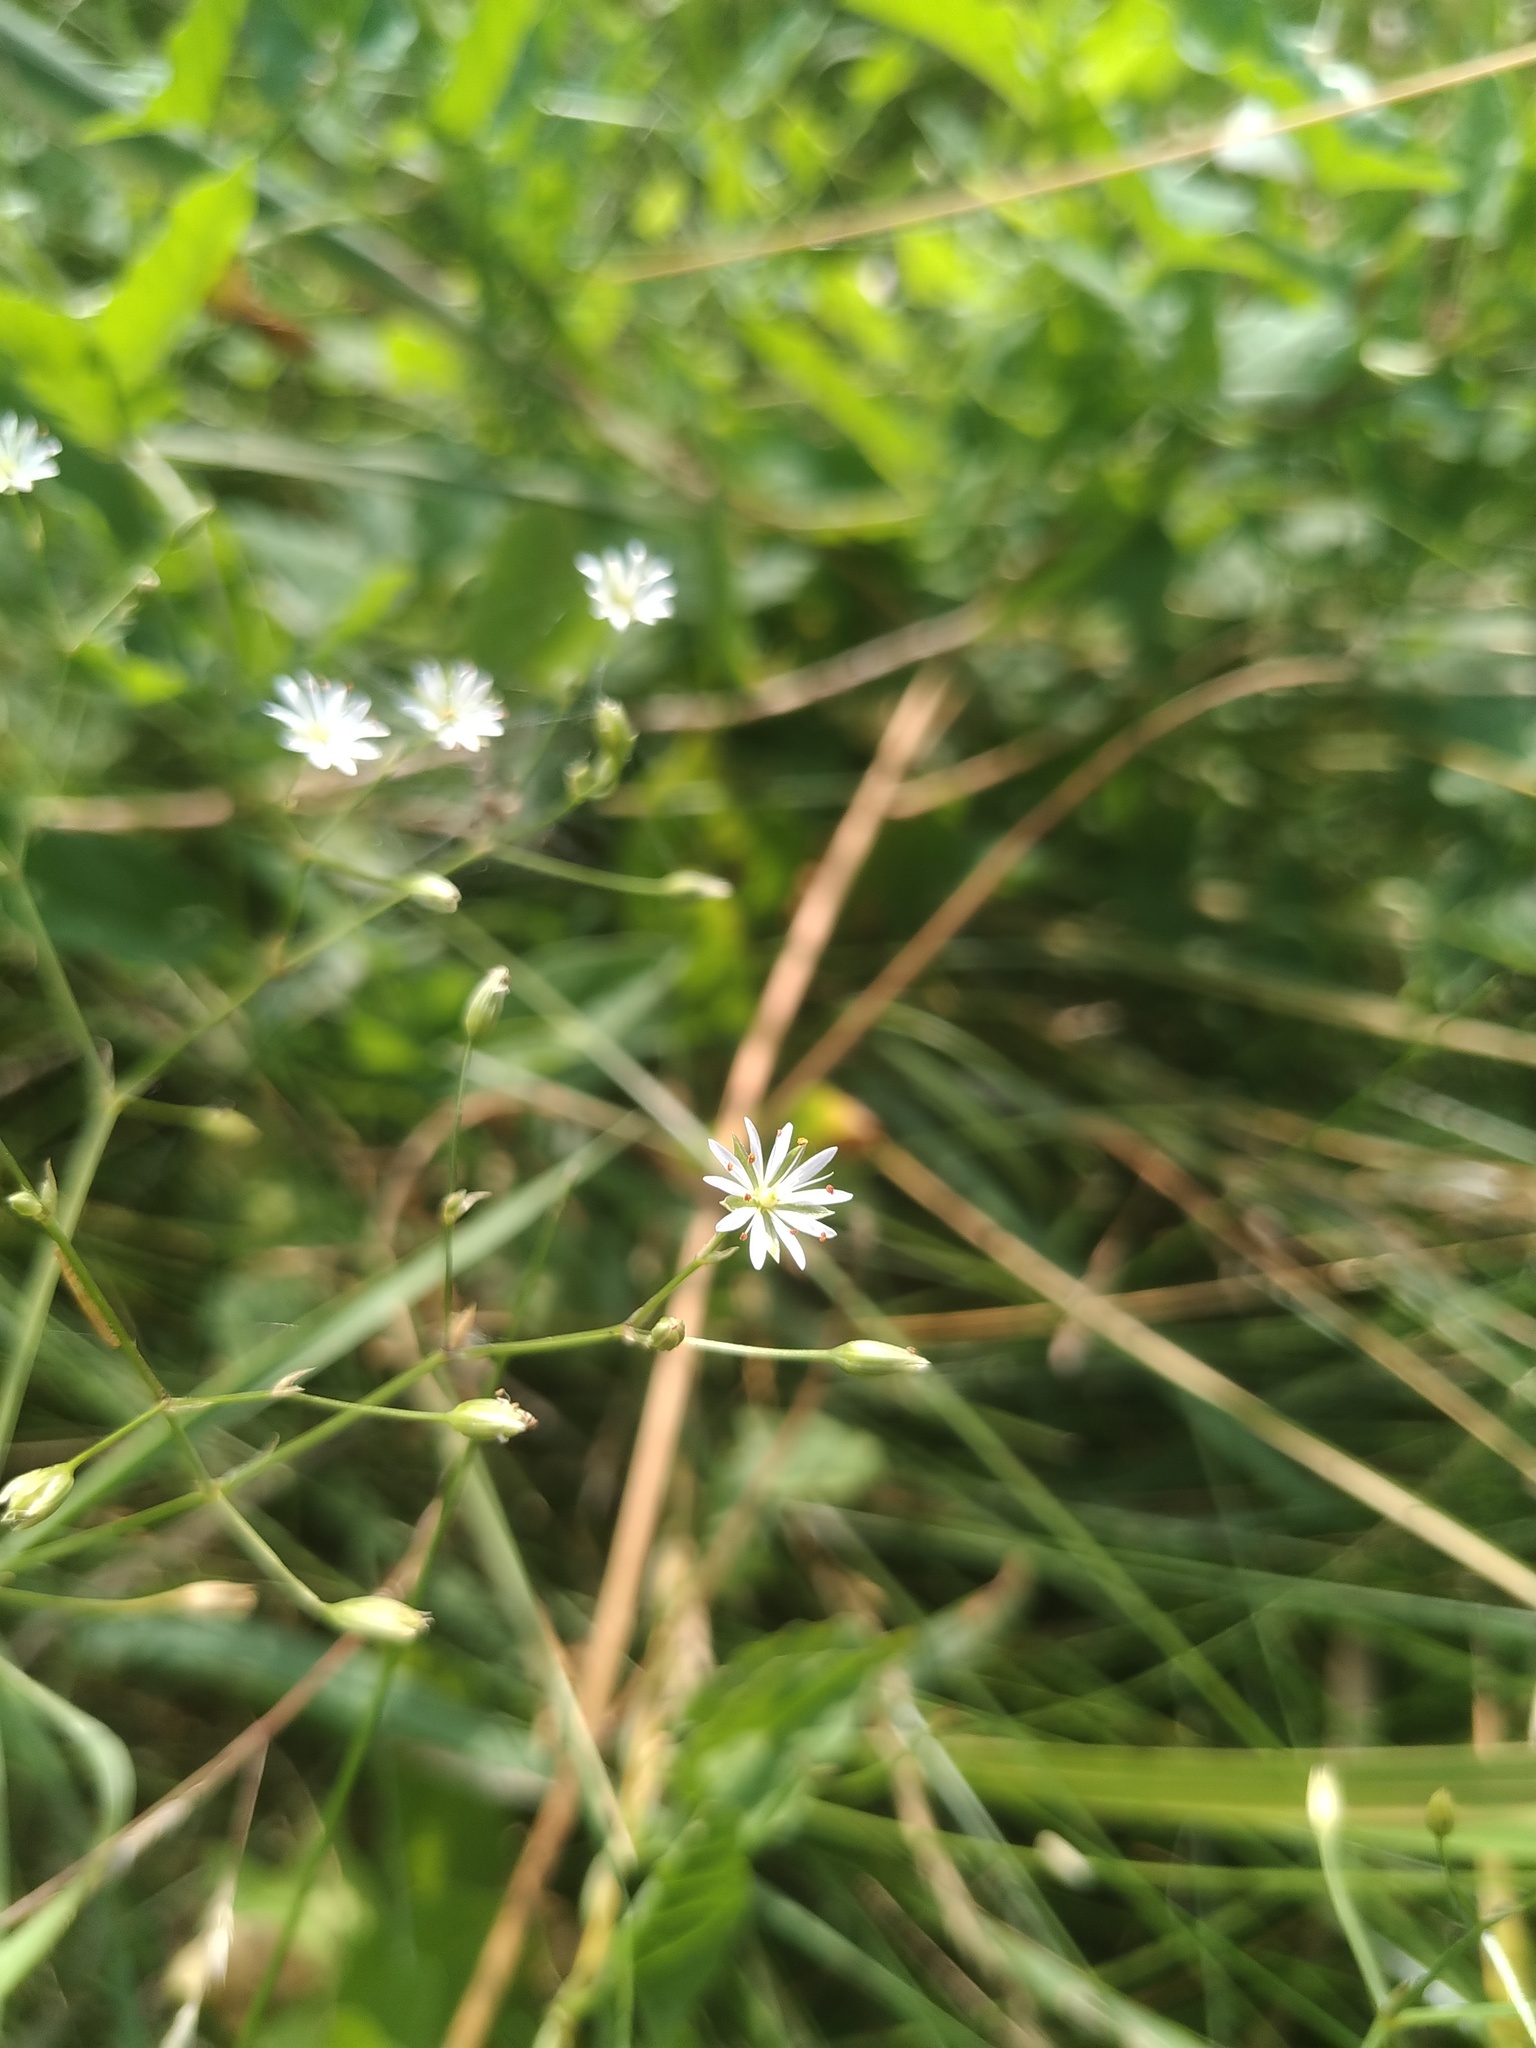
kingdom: Plantae
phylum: Tracheophyta
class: Magnoliopsida
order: Caryophyllales
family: Caryophyllaceae
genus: Stellaria
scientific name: Stellaria graminea
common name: Grass-like starwort
